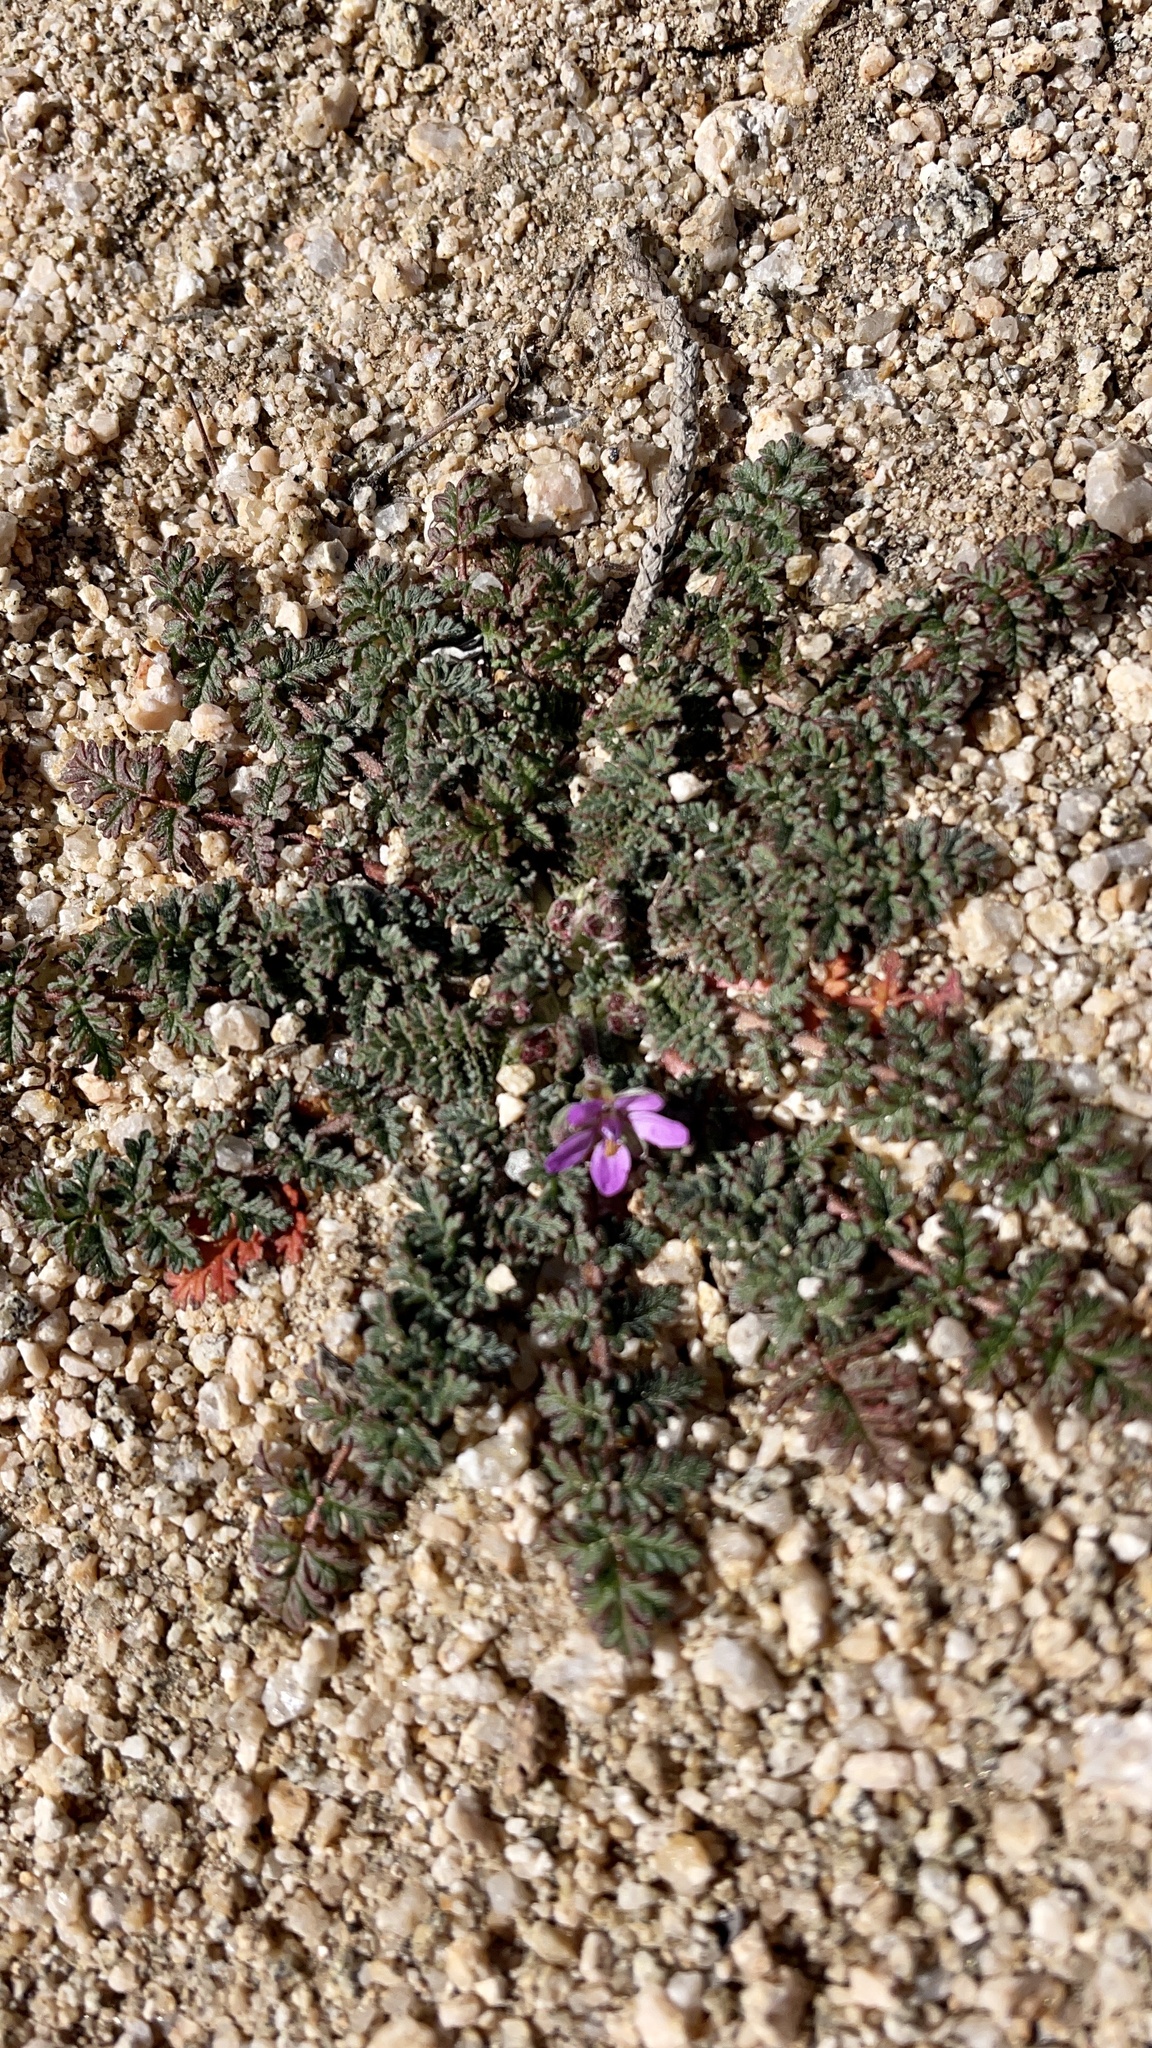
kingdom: Plantae
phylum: Tracheophyta
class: Magnoliopsida
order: Geraniales
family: Geraniaceae
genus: Erodium
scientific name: Erodium cicutarium
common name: Common stork's-bill
